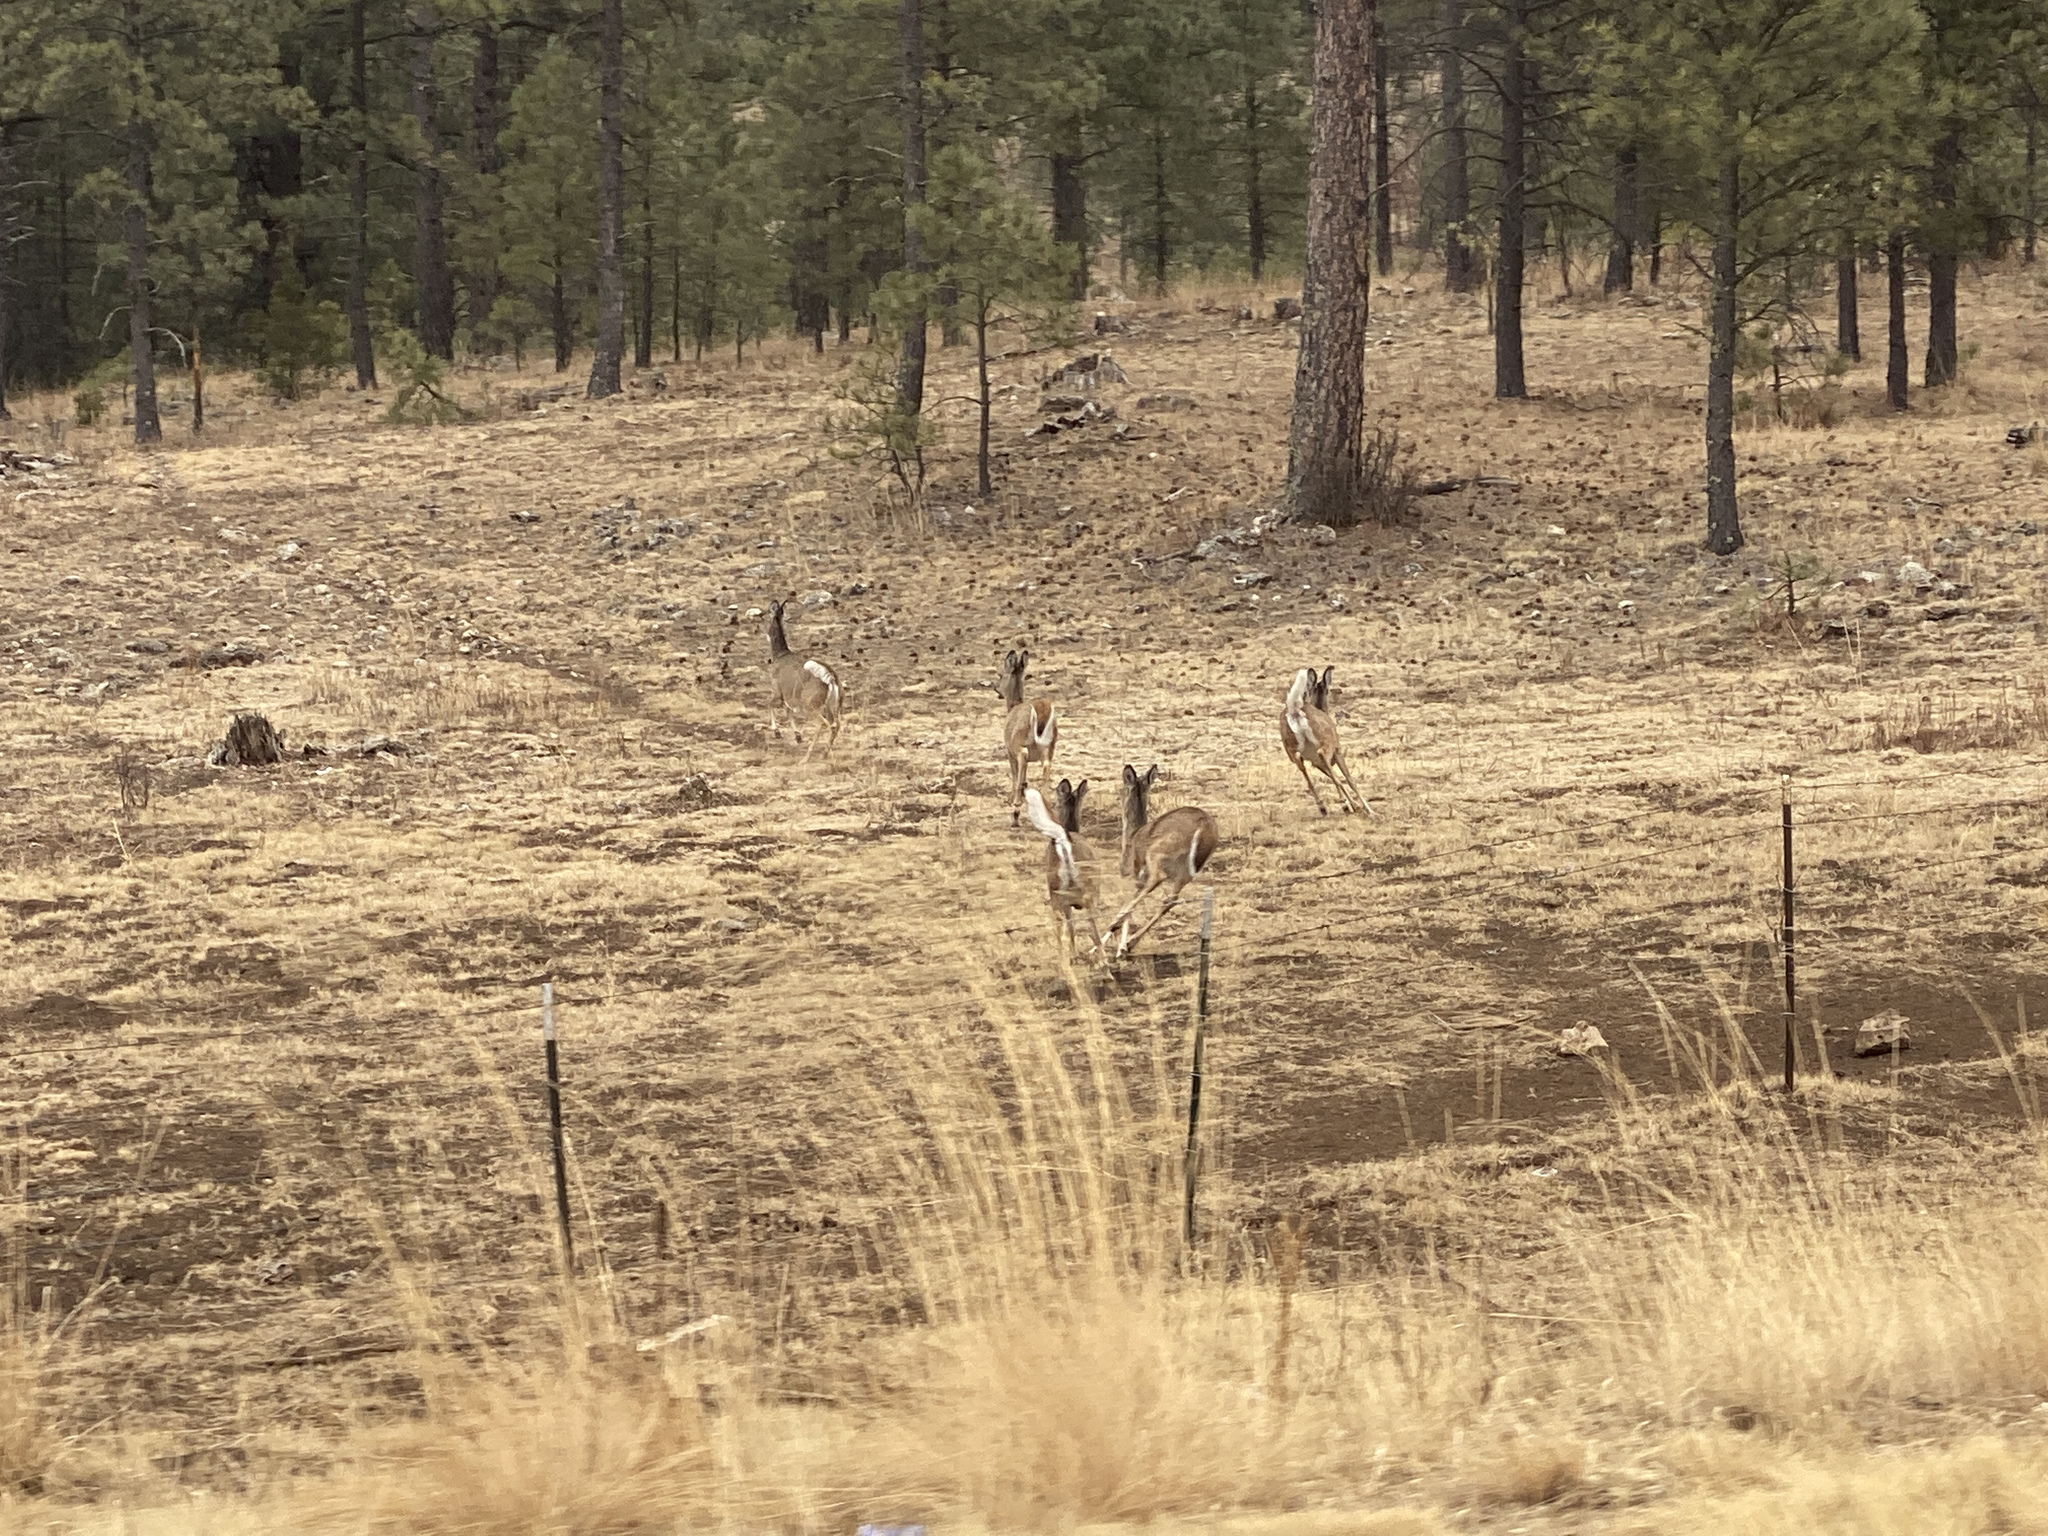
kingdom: Animalia
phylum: Chordata
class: Mammalia
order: Artiodactyla
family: Cervidae
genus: Odocoileus
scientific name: Odocoileus virginianus
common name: White-tailed deer
